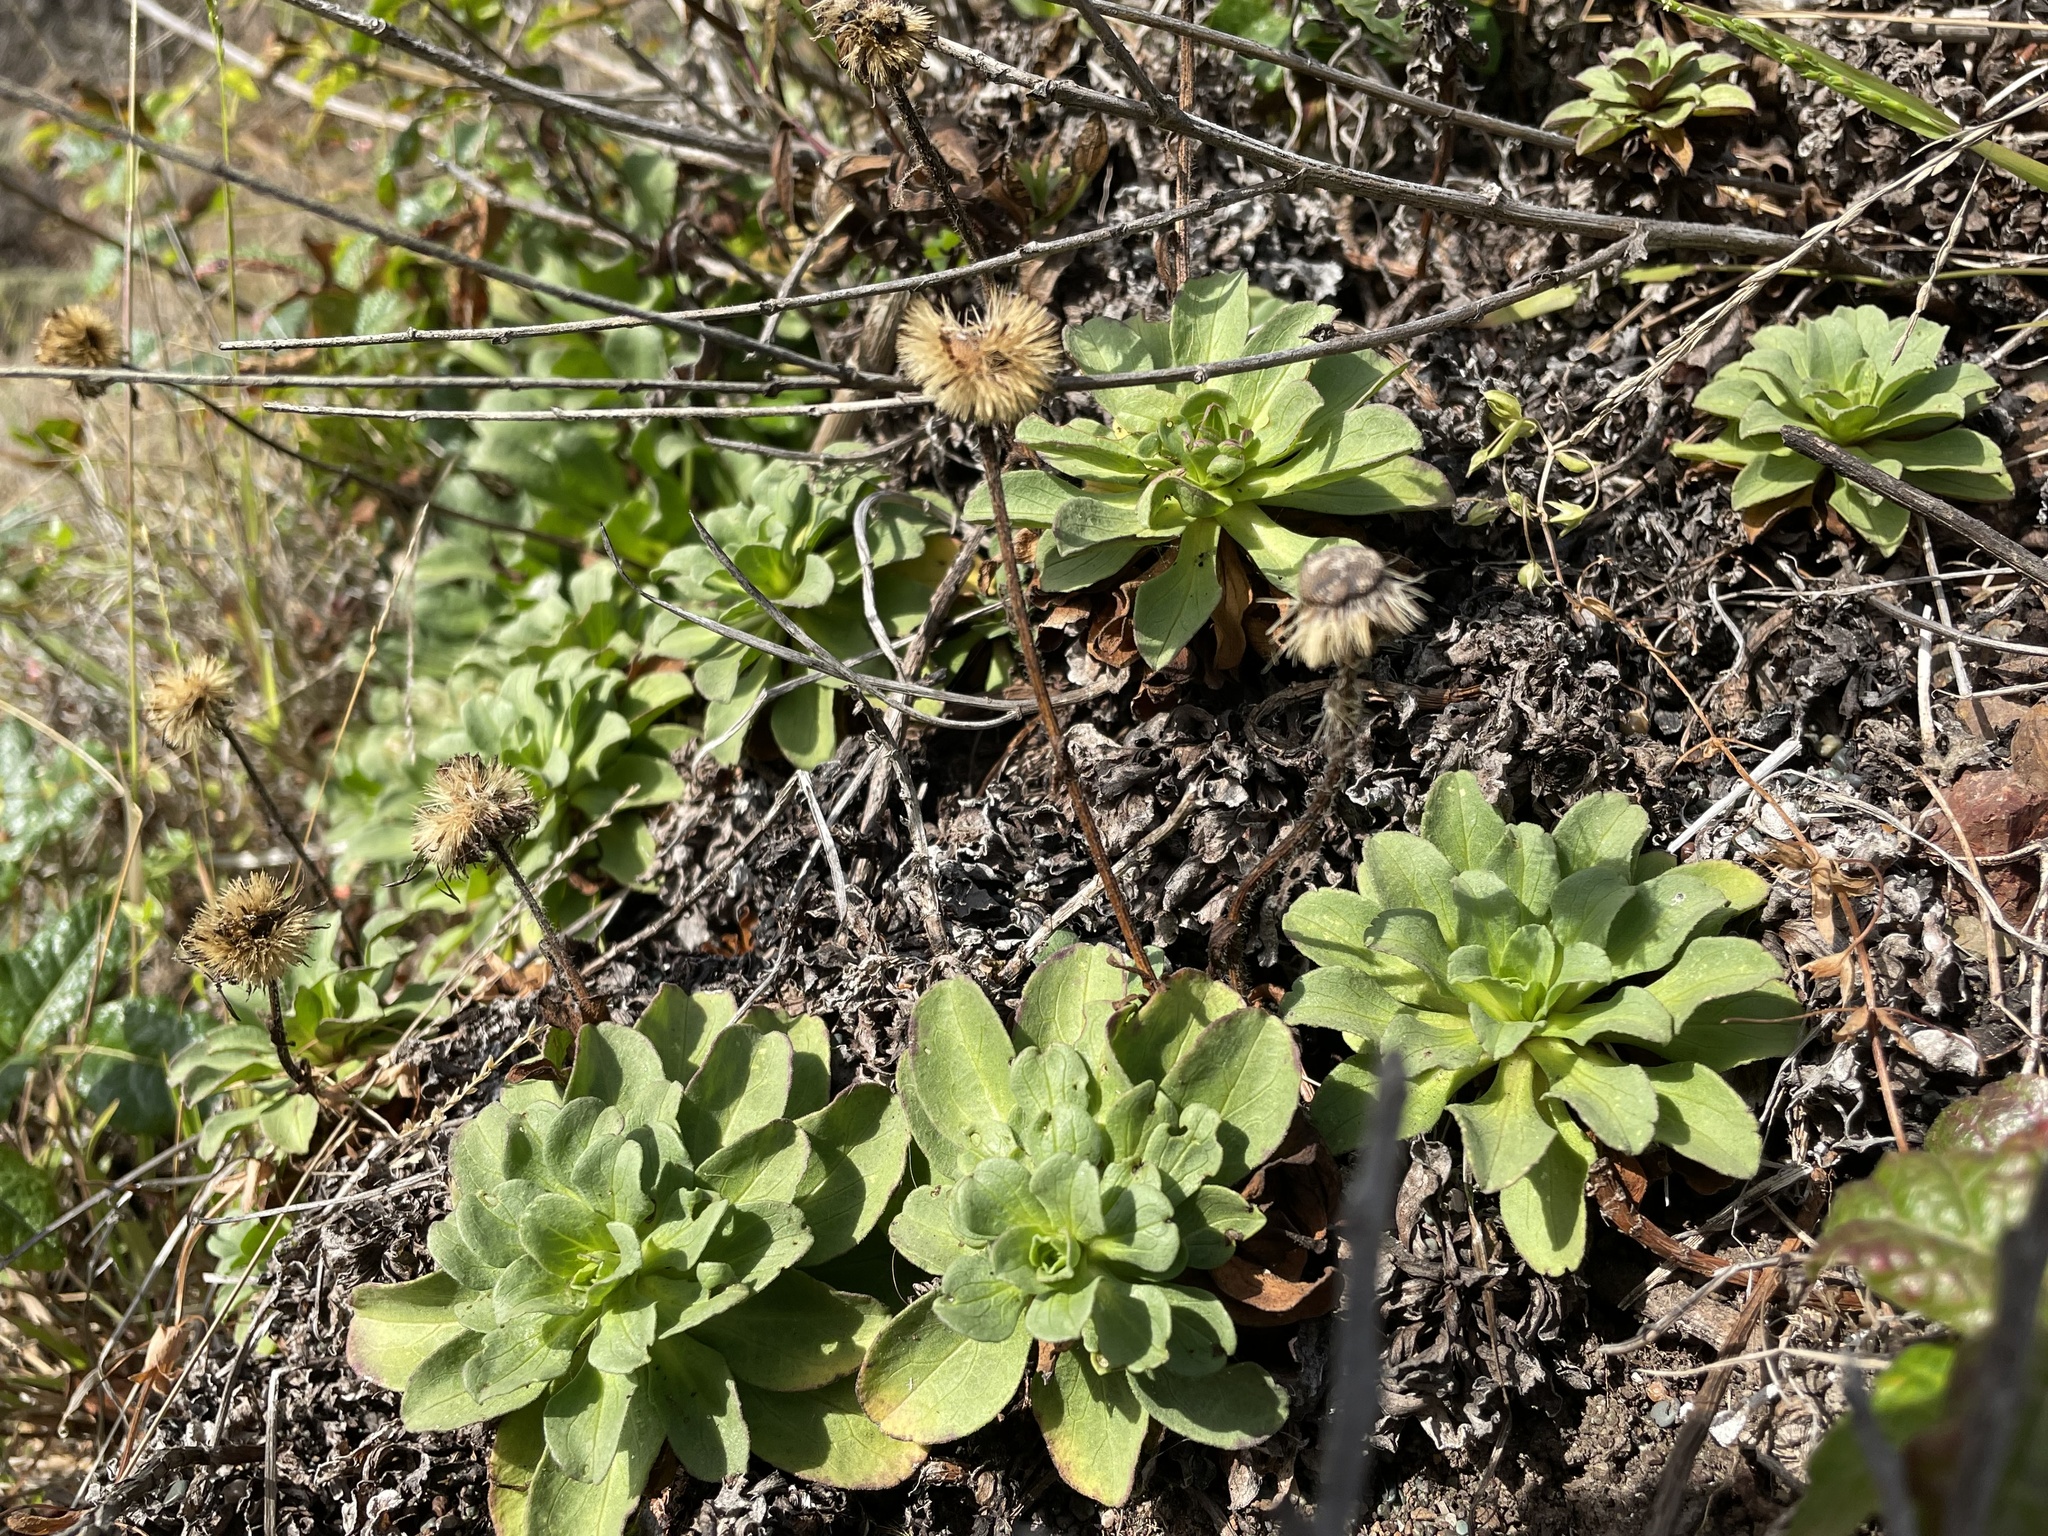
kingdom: Plantae
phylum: Tracheophyta
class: Magnoliopsida
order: Asterales
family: Asteraceae
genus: Erigeron
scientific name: Erigeron glaucus
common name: Seaside daisy
